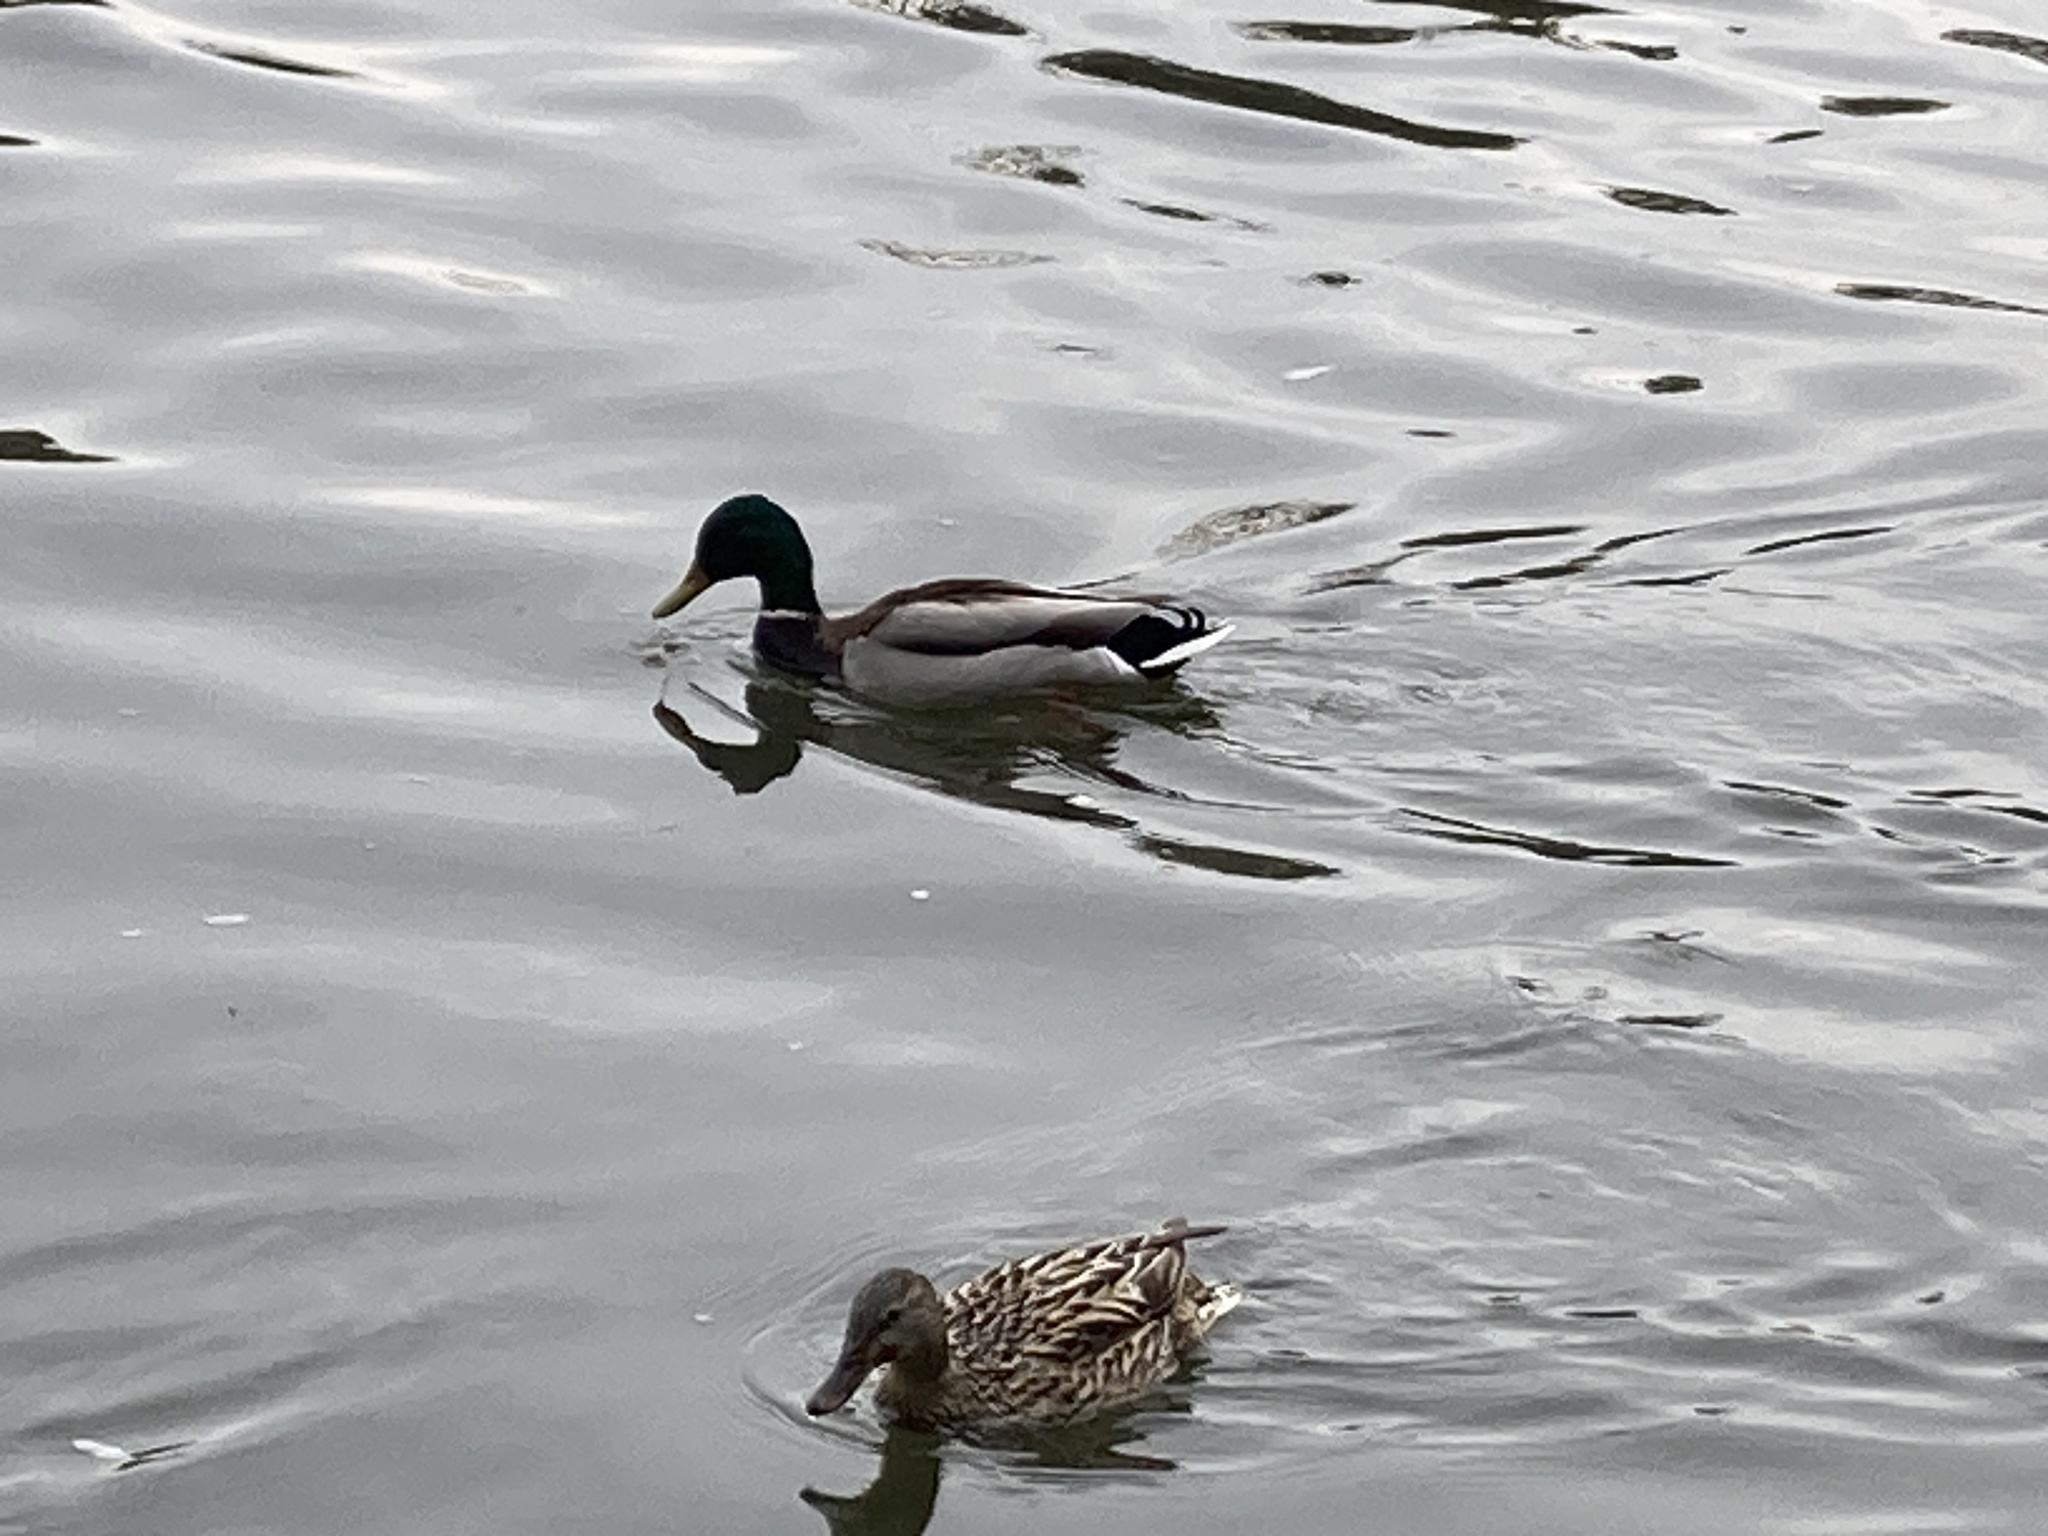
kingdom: Animalia
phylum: Chordata
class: Aves
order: Anseriformes
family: Anatidae
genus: Anas
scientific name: Anas platyrhynchos
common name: Mallard
